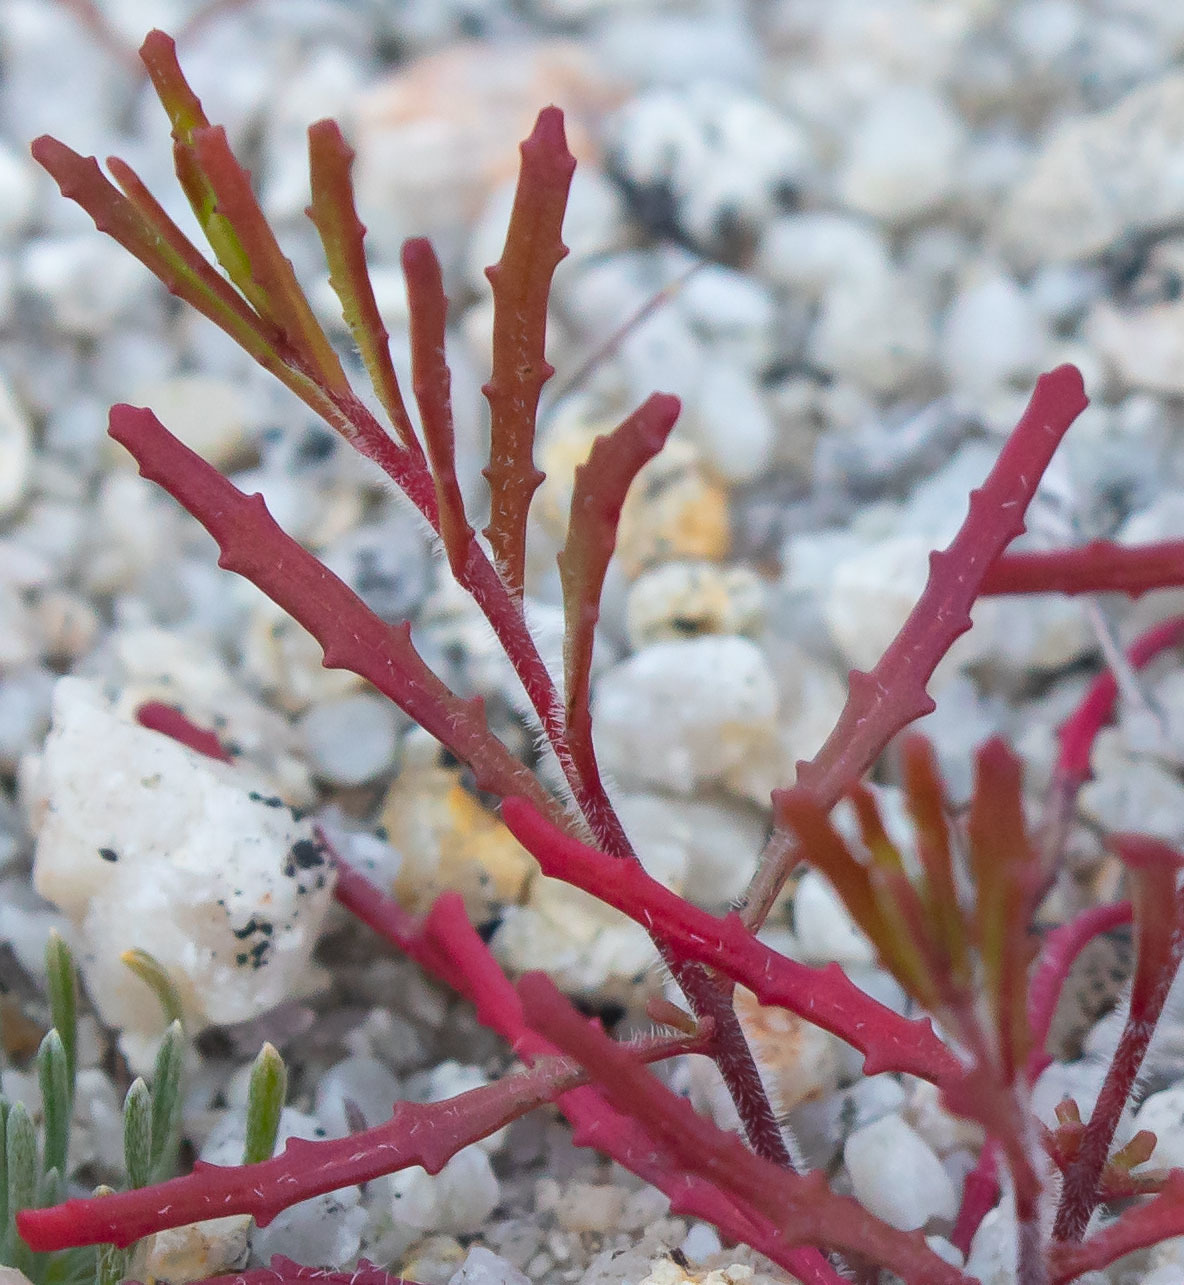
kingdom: Plantae
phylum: Tracheophyta
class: Magnoliopsida
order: Myrtales
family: Onagraceae
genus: Camissonia
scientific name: Camissonia contorta
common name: Contorted suncup
